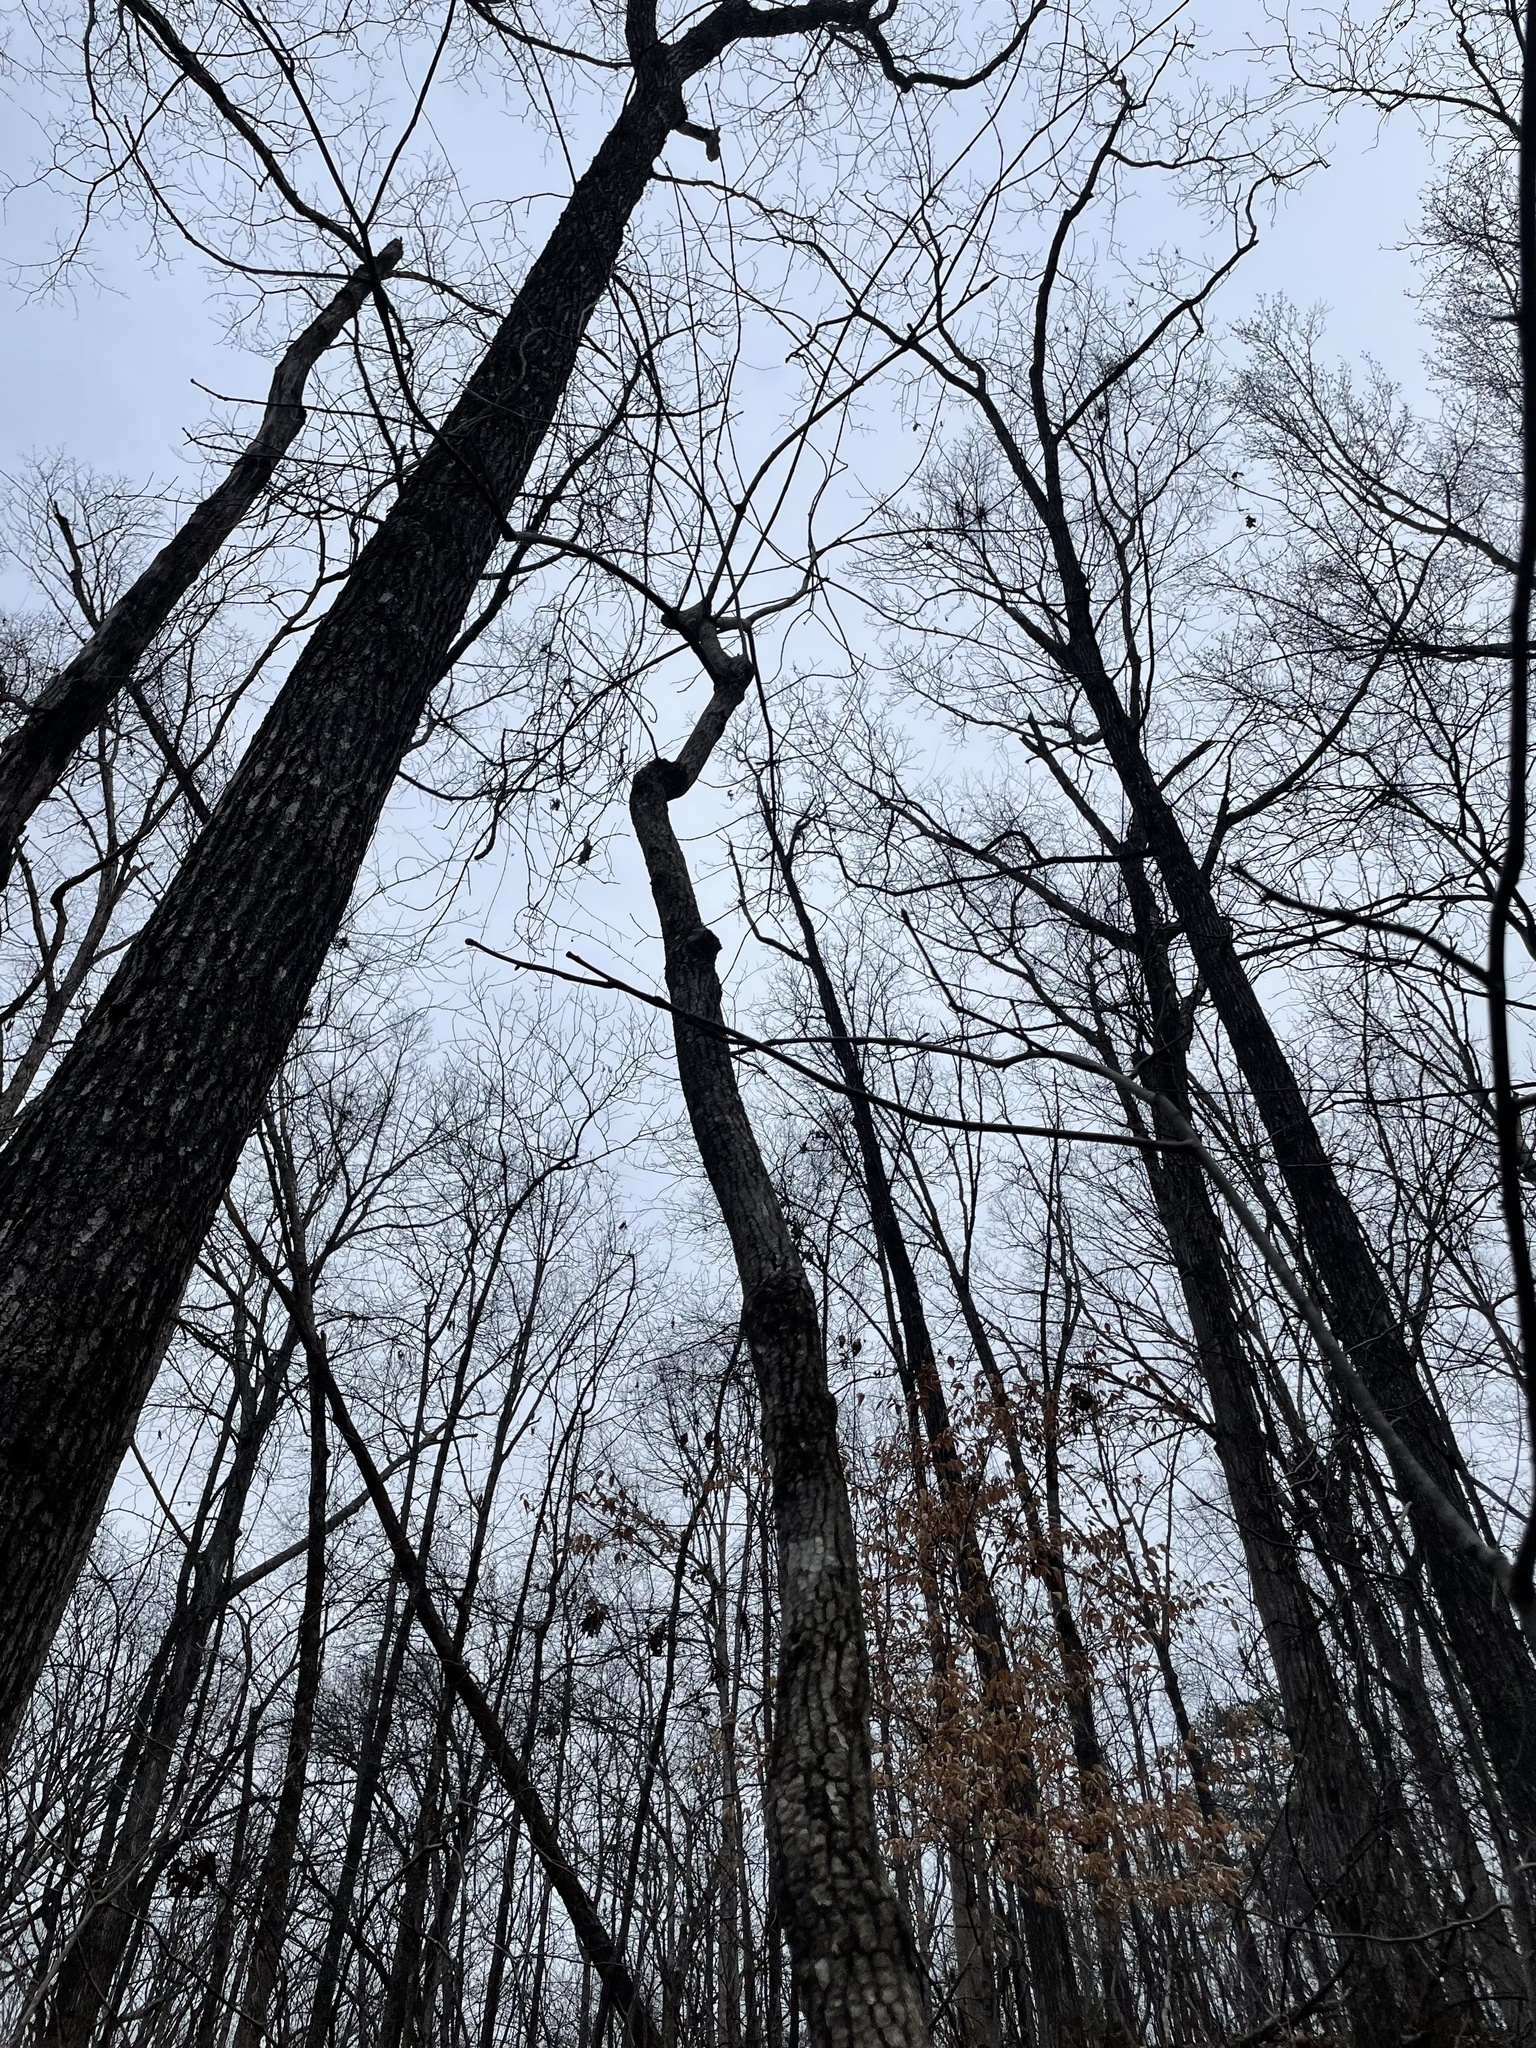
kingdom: Plantae
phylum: Tracheophyta
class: Magnoliopsida
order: Cornales
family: Cornaceae
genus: Cornus
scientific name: Cornus florida
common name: Flowering dogwood
